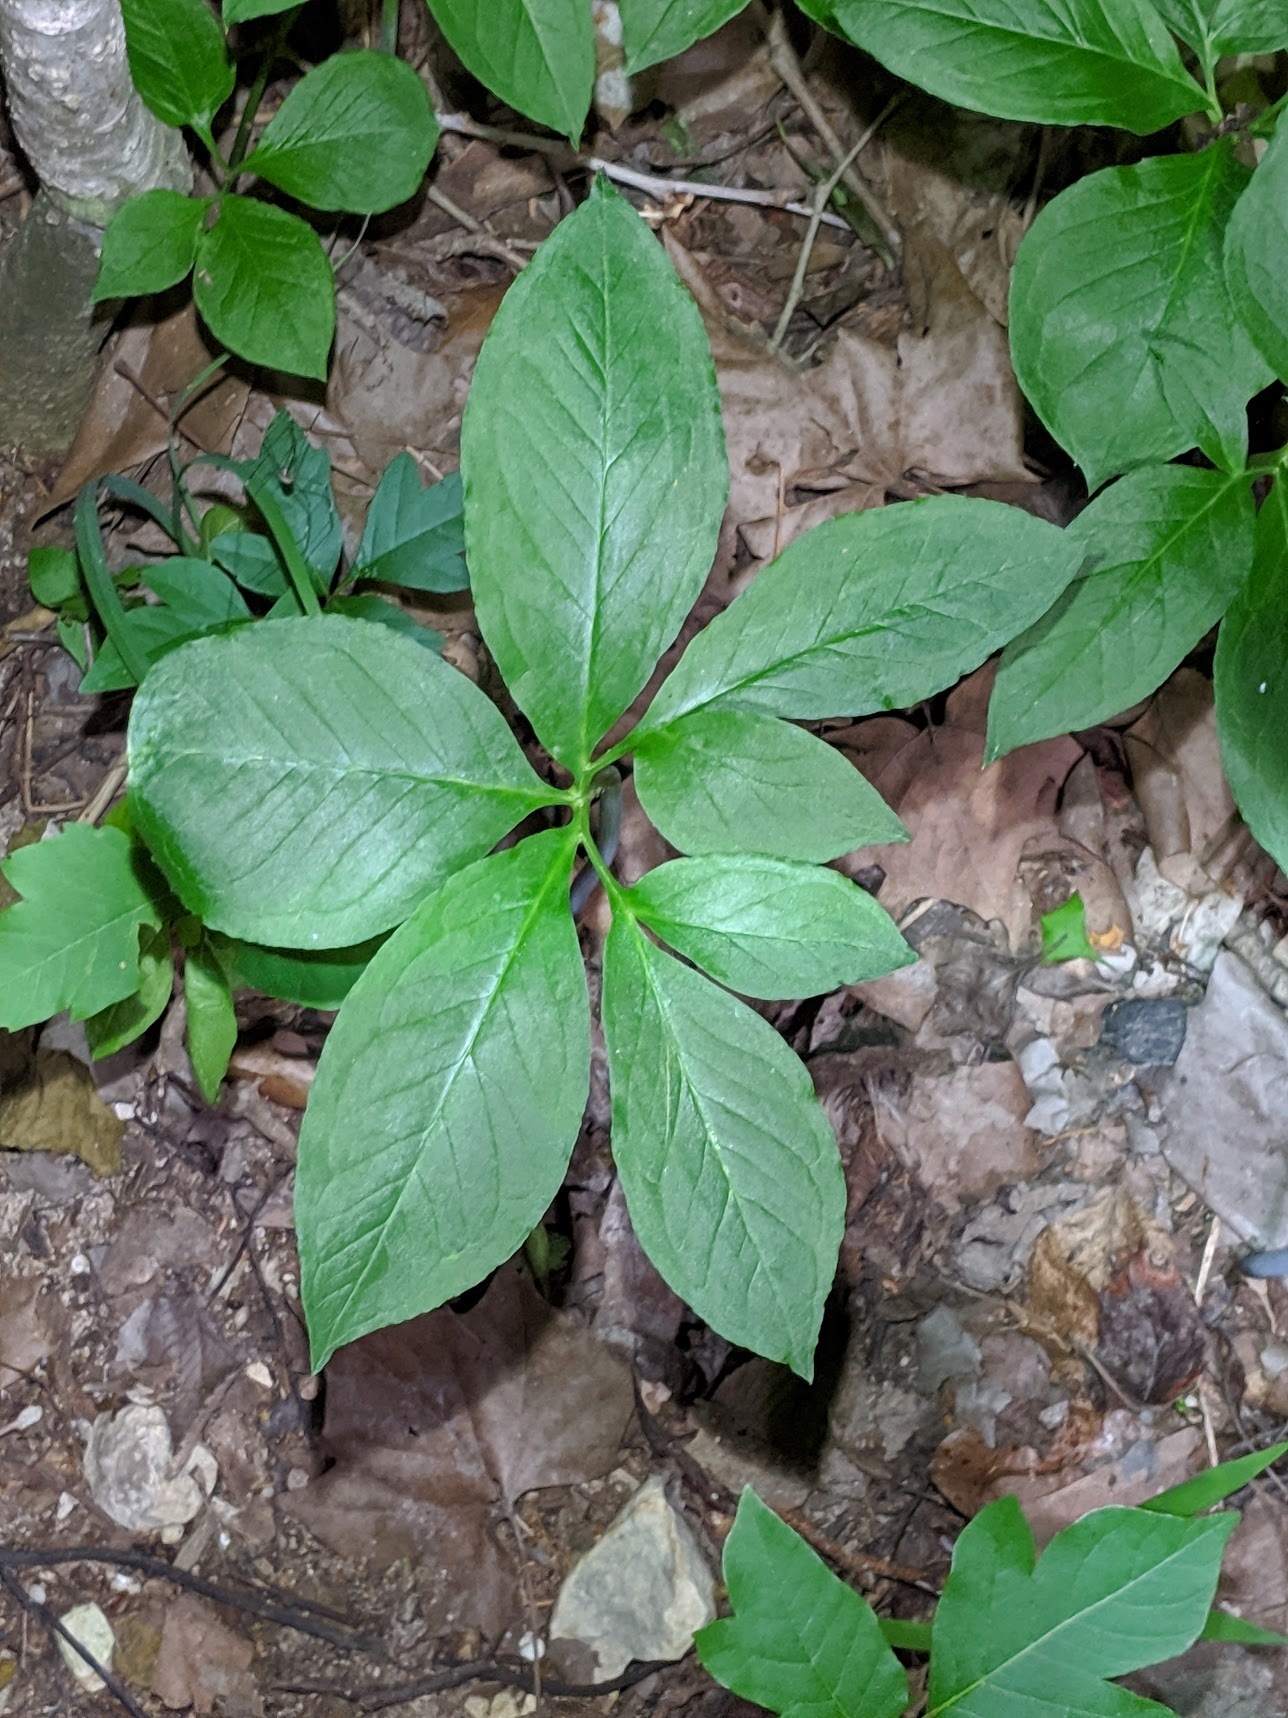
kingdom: Plantae
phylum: Tracheophyta
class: Liliopsida
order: Alismatales
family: Araceae
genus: Arisaema
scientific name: Arisaema dracontium
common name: Dragon-arum
